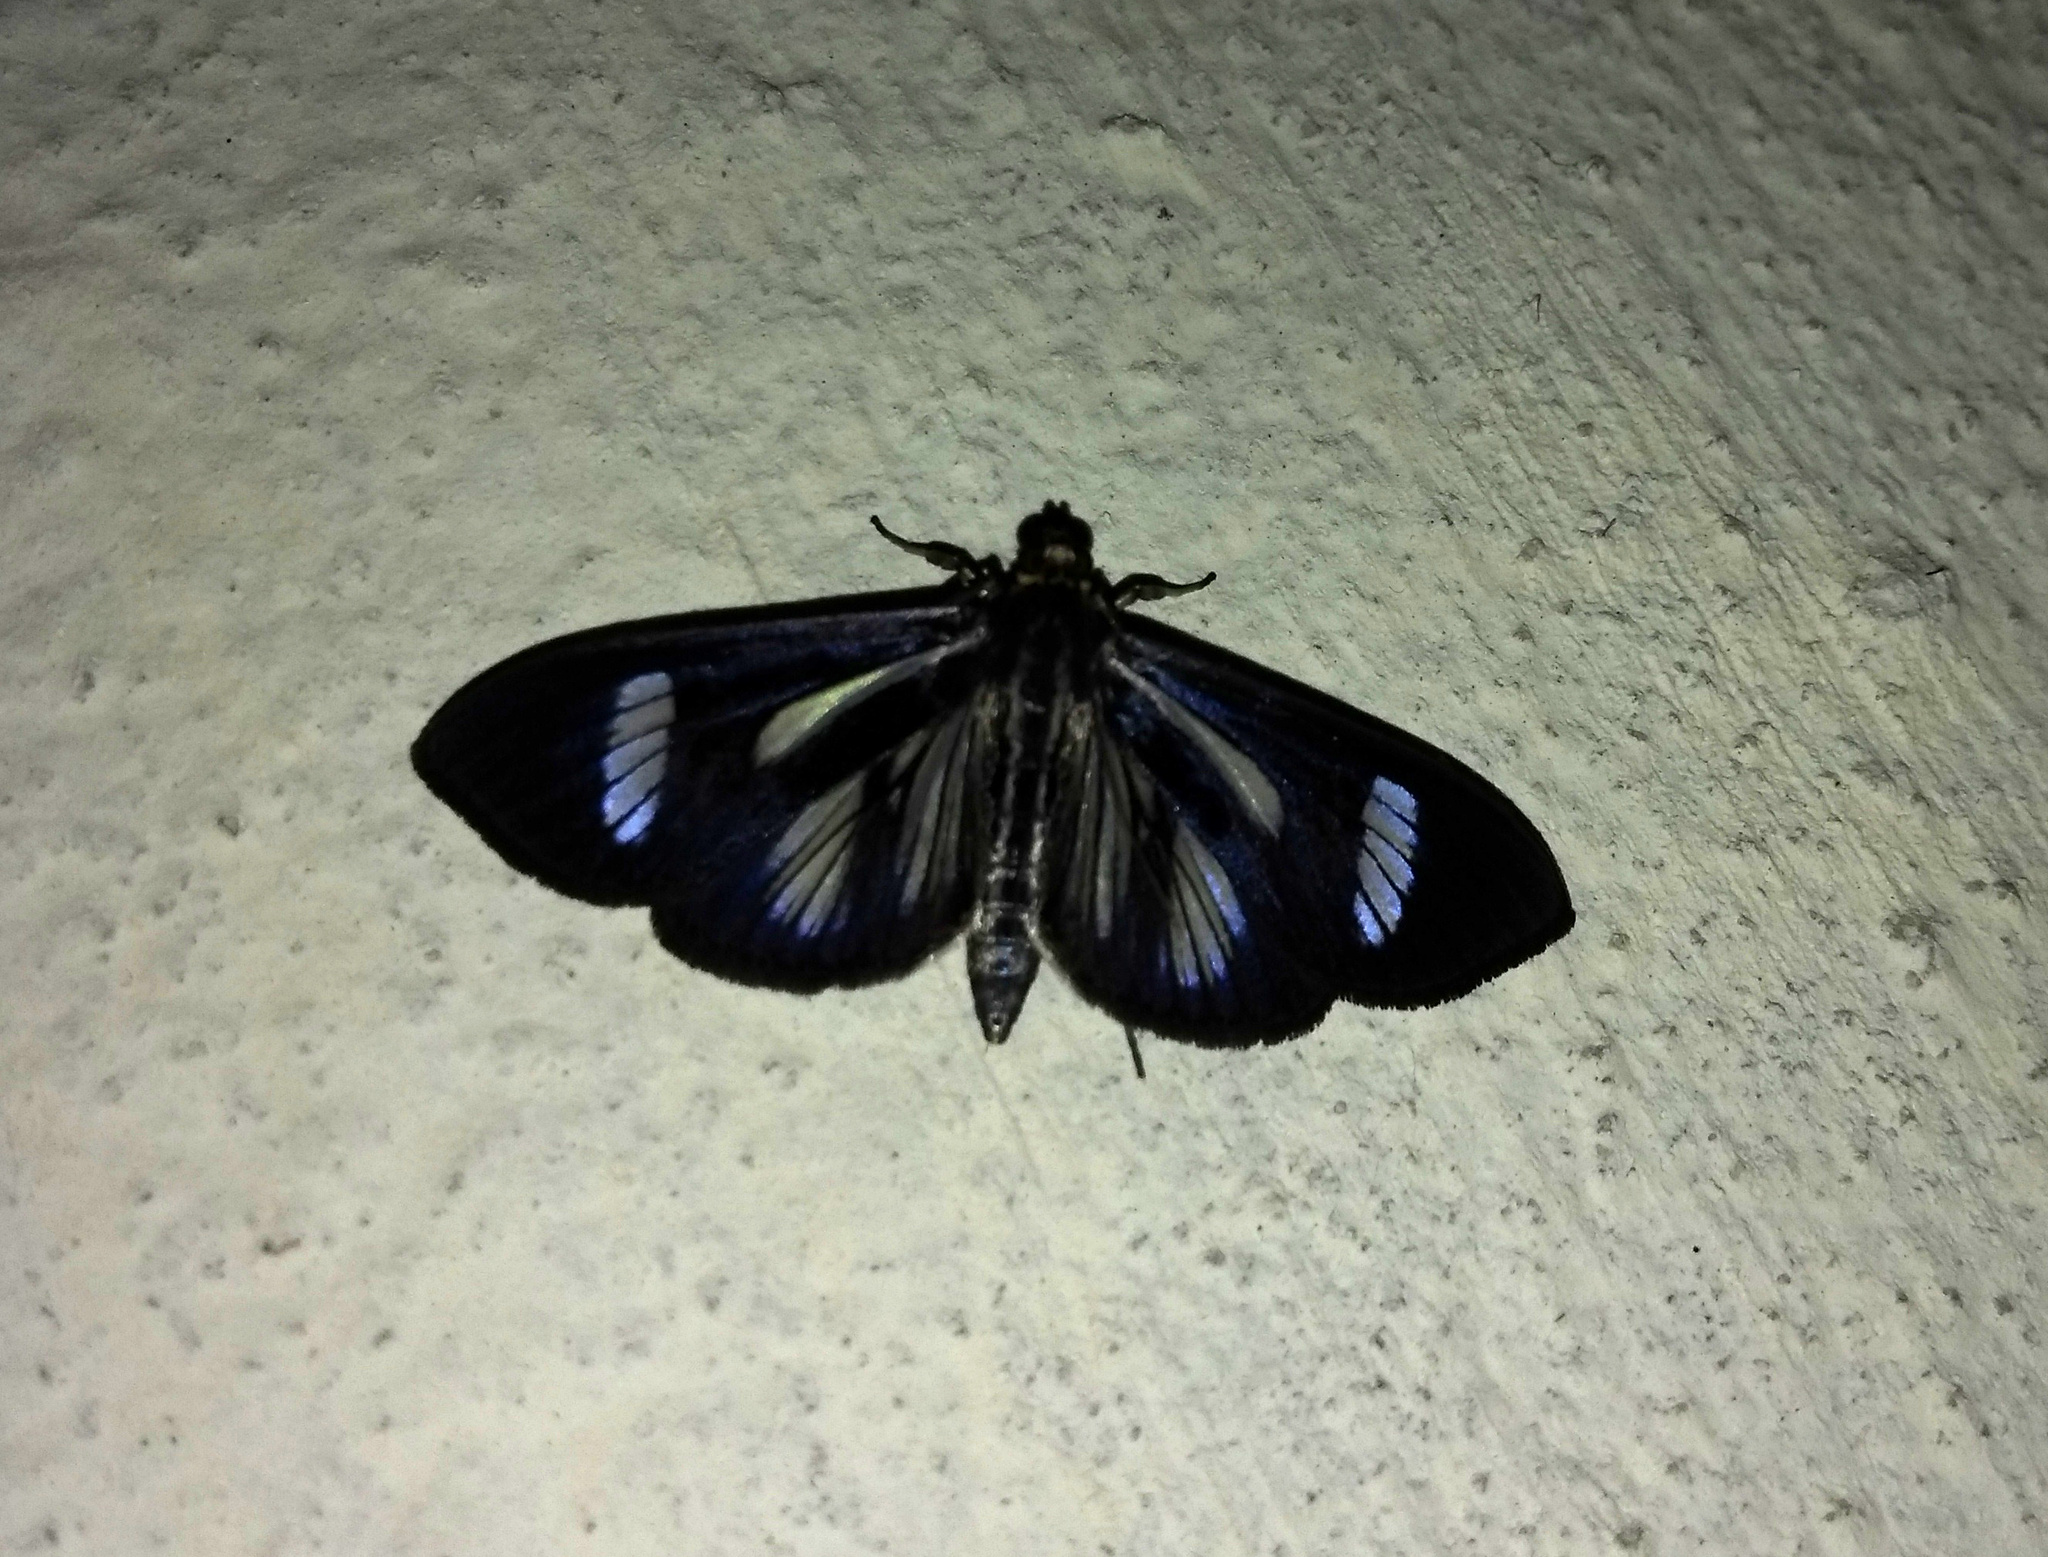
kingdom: Animalia
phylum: Arthropoda
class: Insecta
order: Lepidoptera
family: Crambidae
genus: Phostria
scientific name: Phostria euagra
